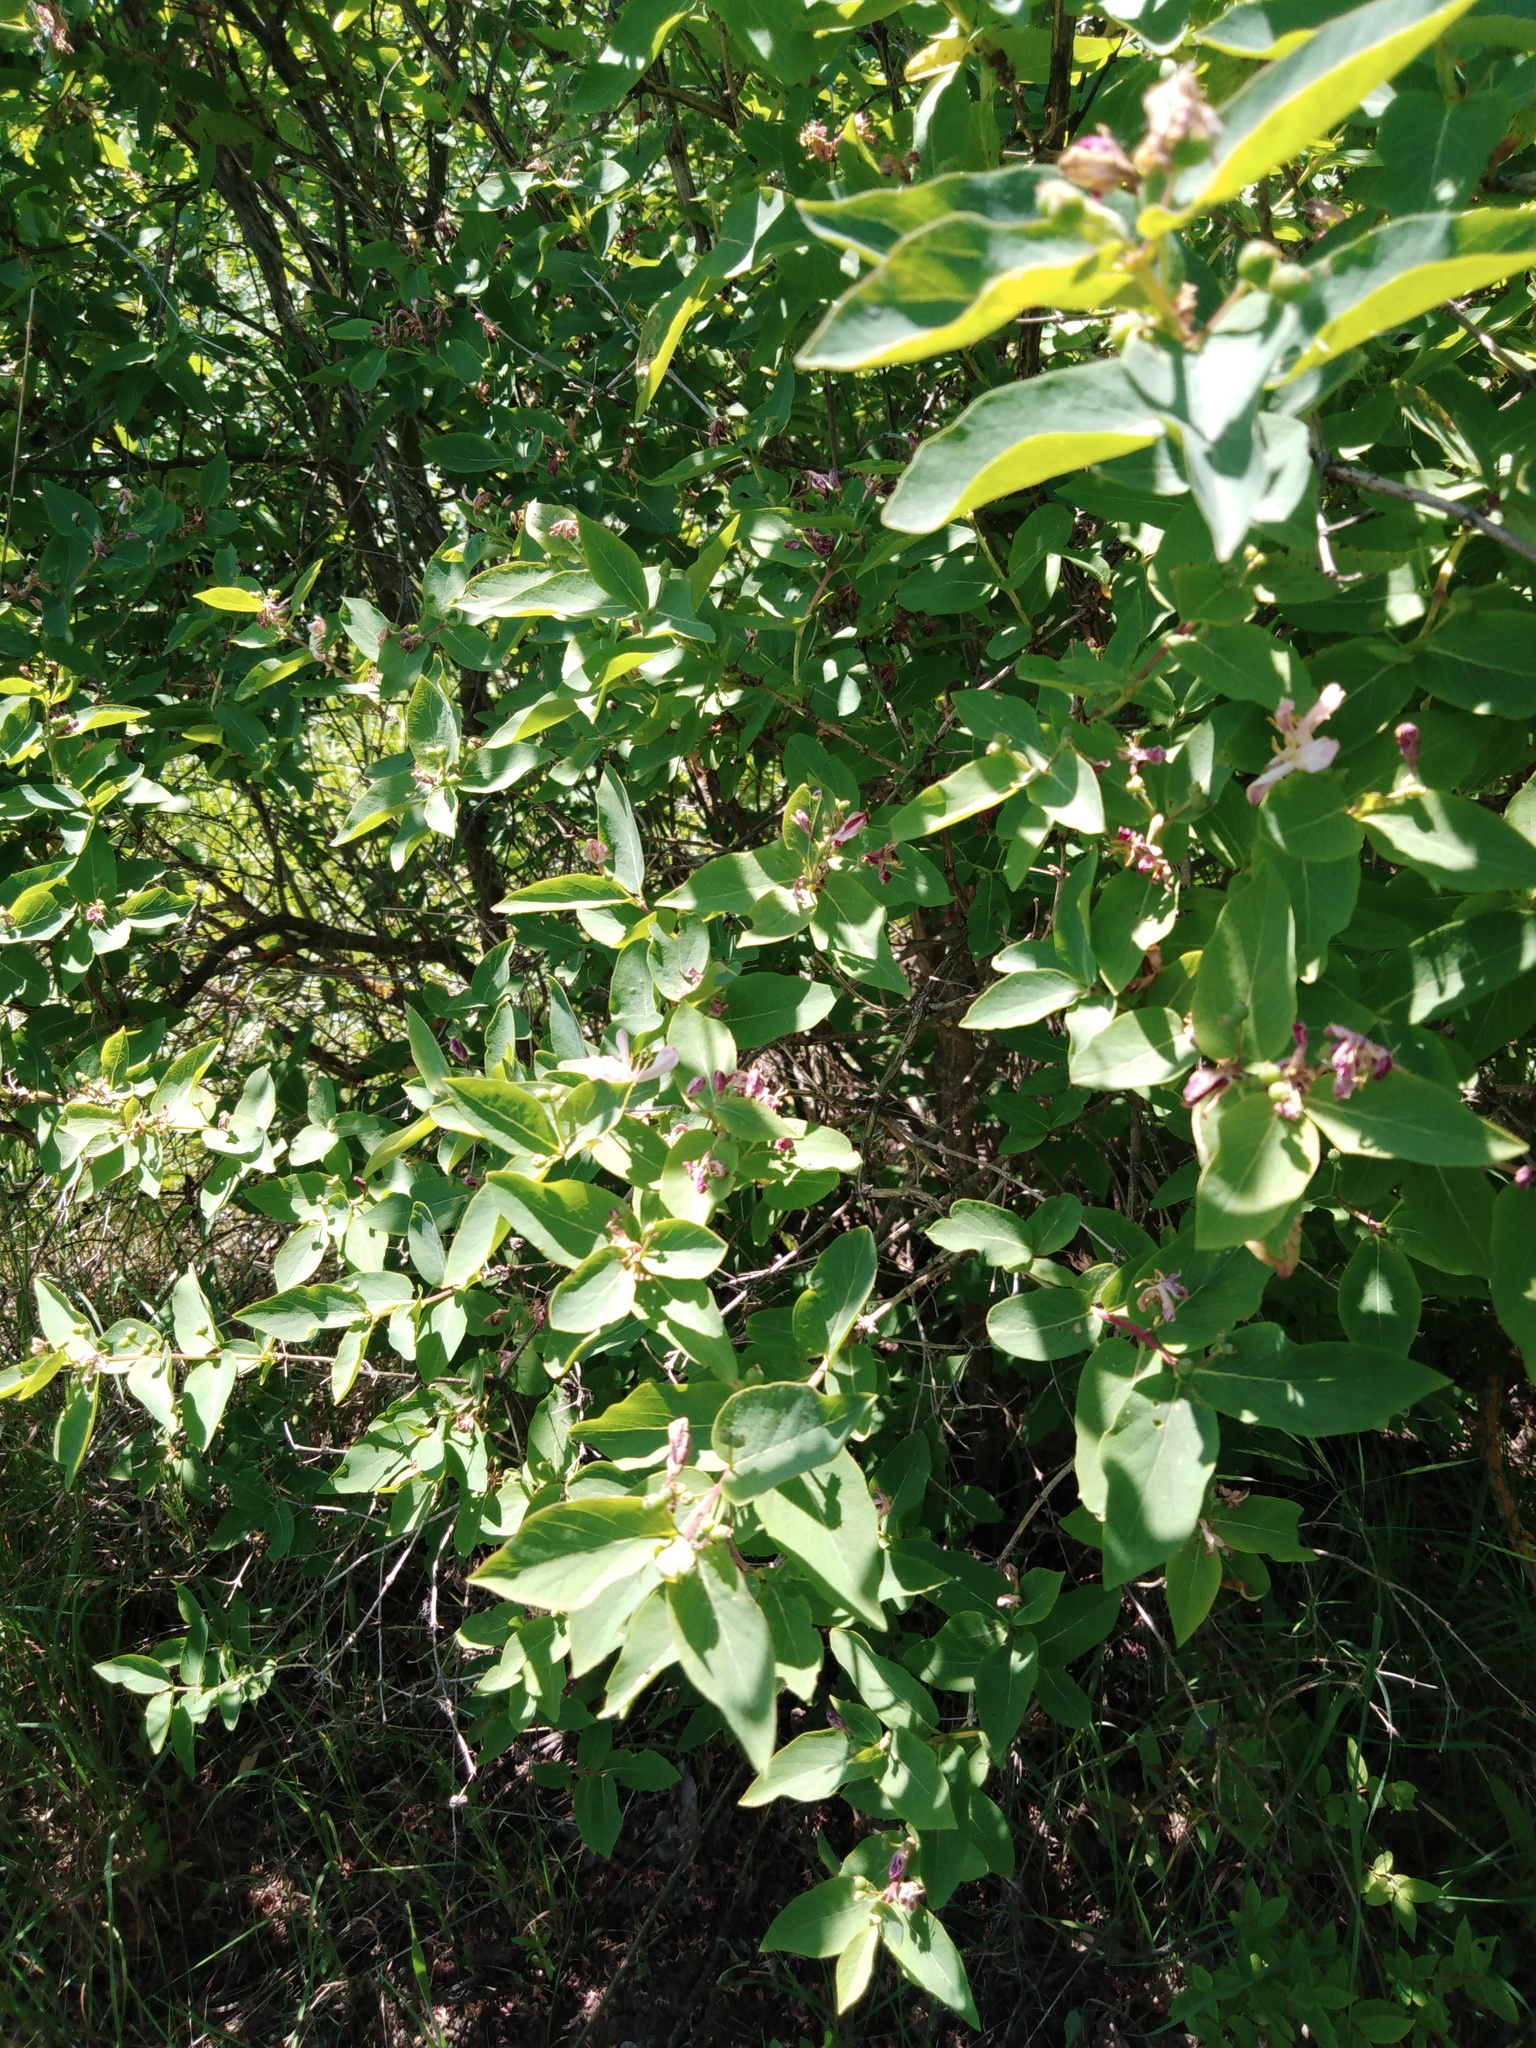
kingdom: Plantae
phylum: Tracheophyta
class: Magnoliopsida
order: Dipsacales
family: Caprifoliaceae
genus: Lonicera
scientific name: Lonicera tatarica
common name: Tatarian honeysuckle
